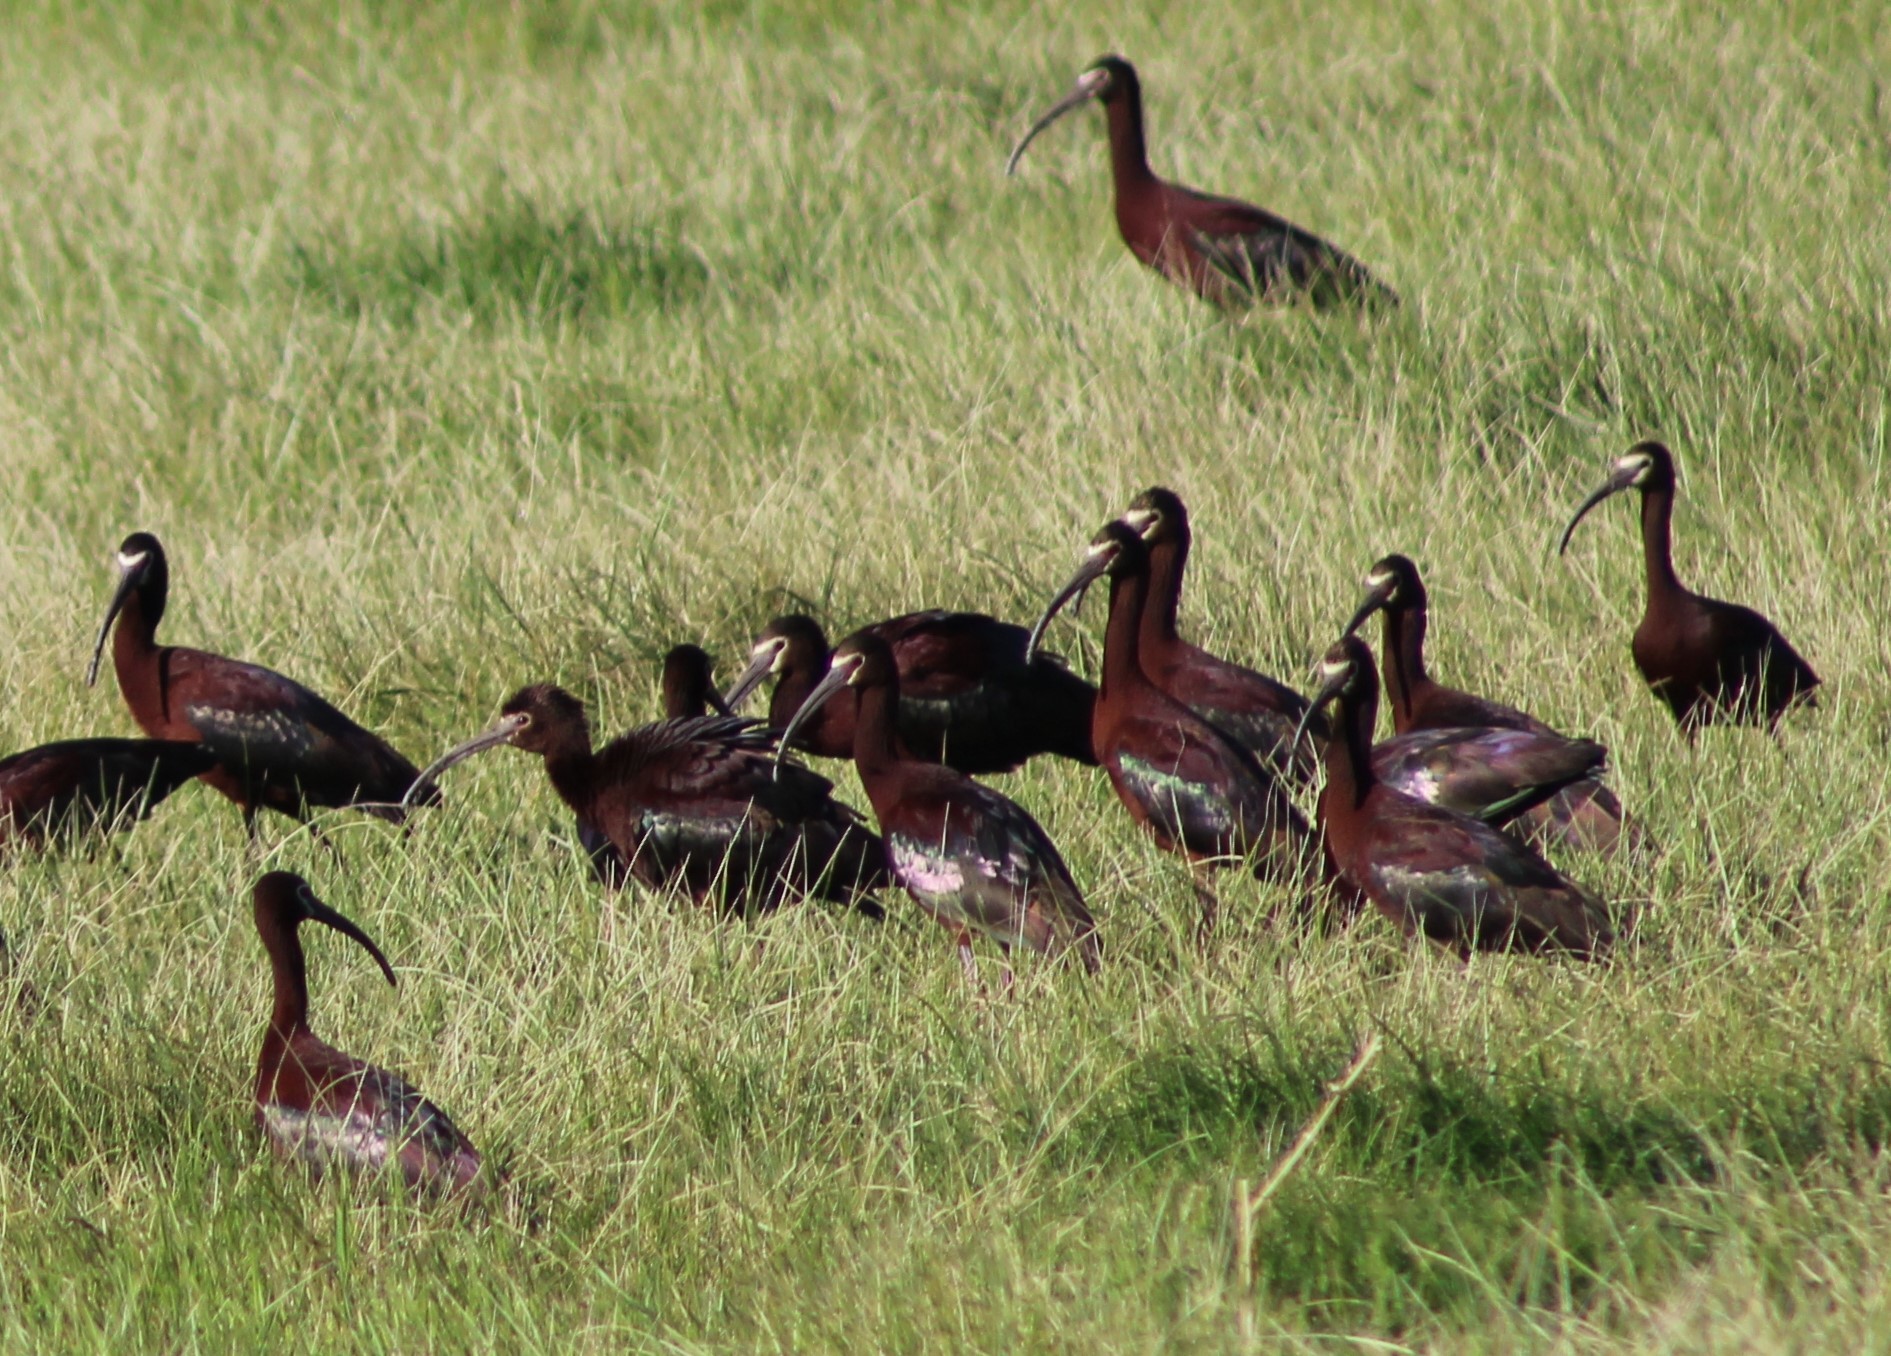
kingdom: Animalia
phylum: Chordata
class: Aves
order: Pelecaniformes
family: Threskiornithidae
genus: Plegadis
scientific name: Plegadis chihi
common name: White-faced ibis
